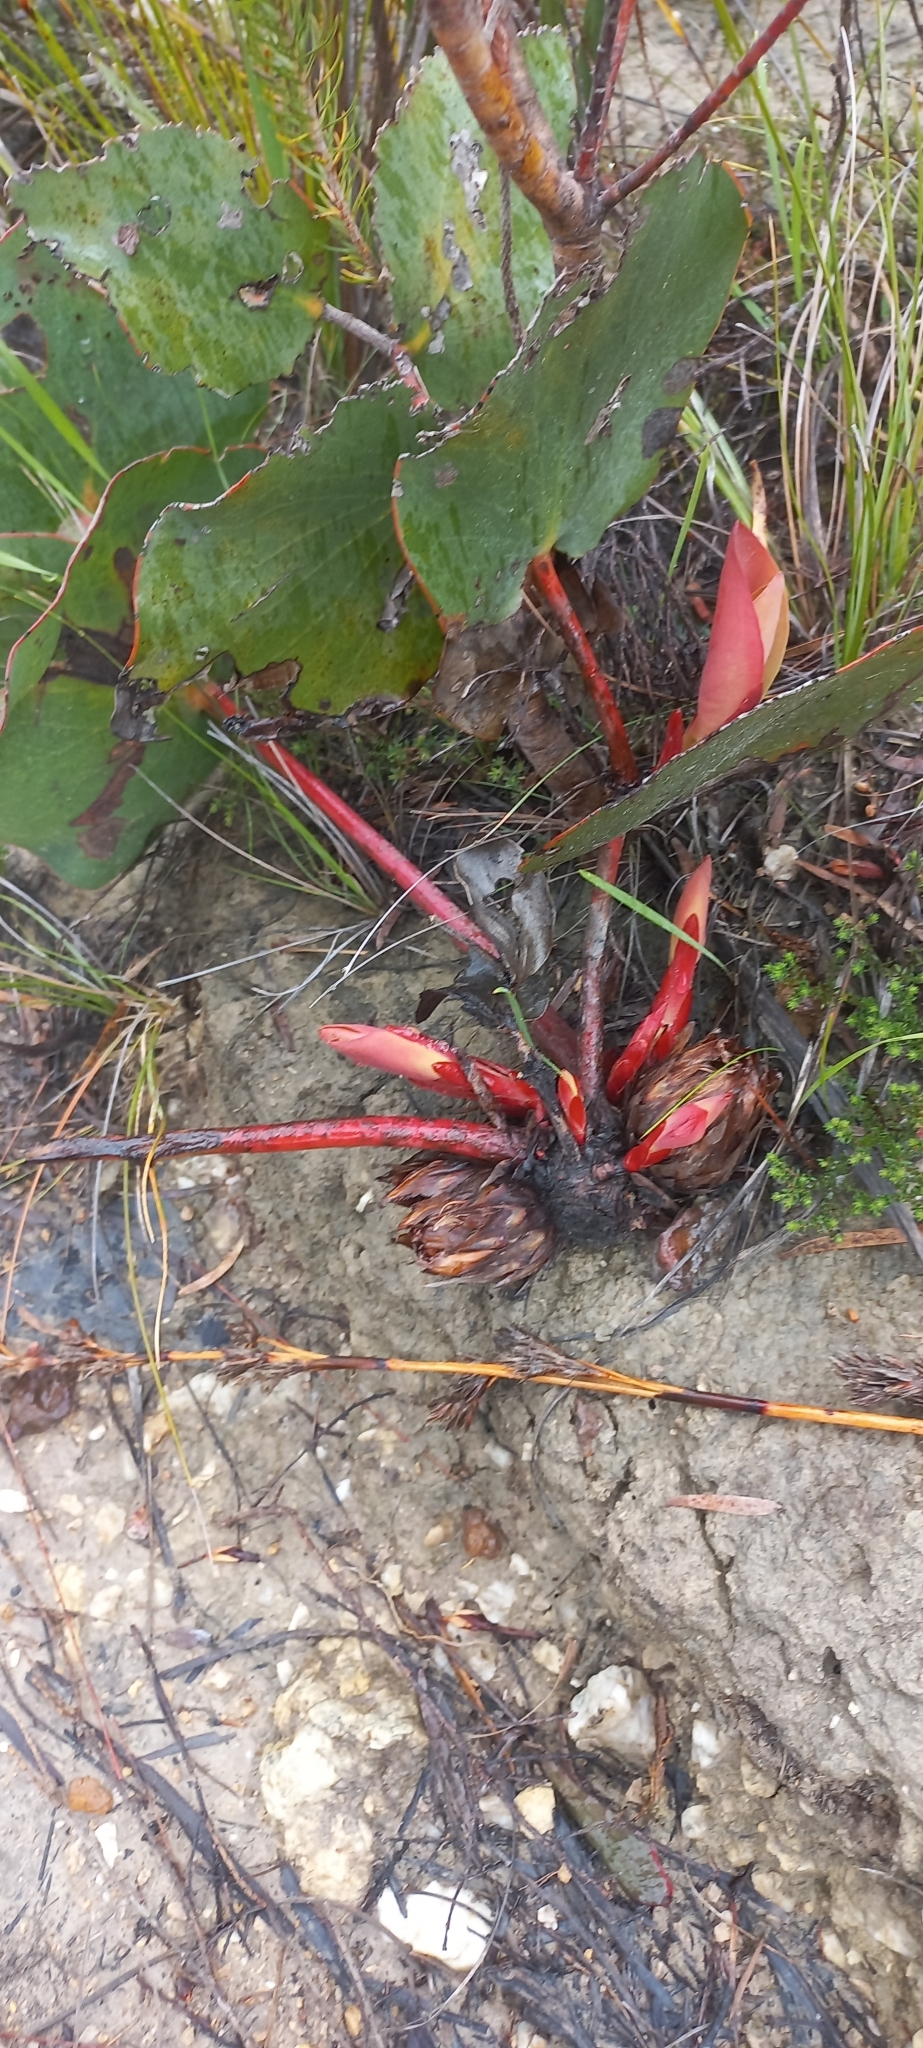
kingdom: Plantae
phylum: Tracheophyta
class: Magnoliopsida
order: Proteales
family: Proteaceae
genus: Protea
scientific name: Protea cordata
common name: Heart-leaf sugarbush
